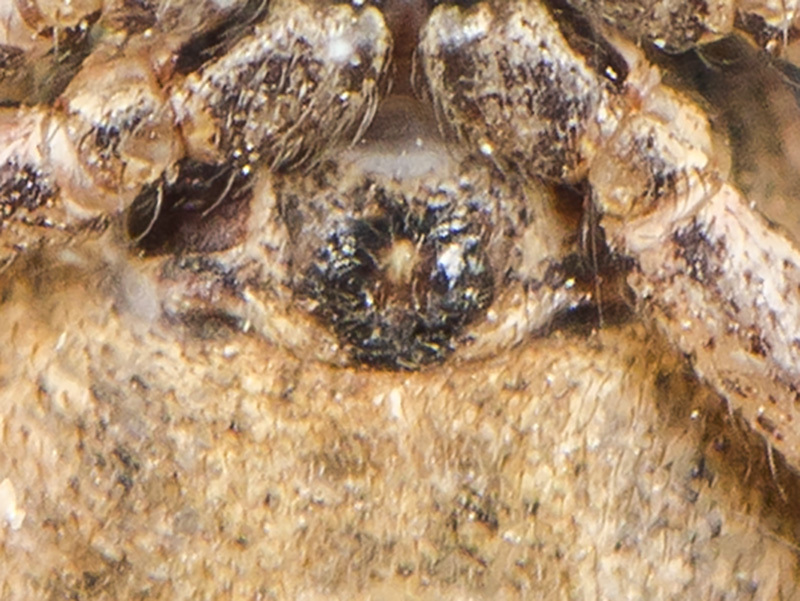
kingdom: Animalia
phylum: Arthropoda
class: Arachnida
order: Araneae
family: Thomisidae
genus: Xysticus
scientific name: Xysticus marmoratus
